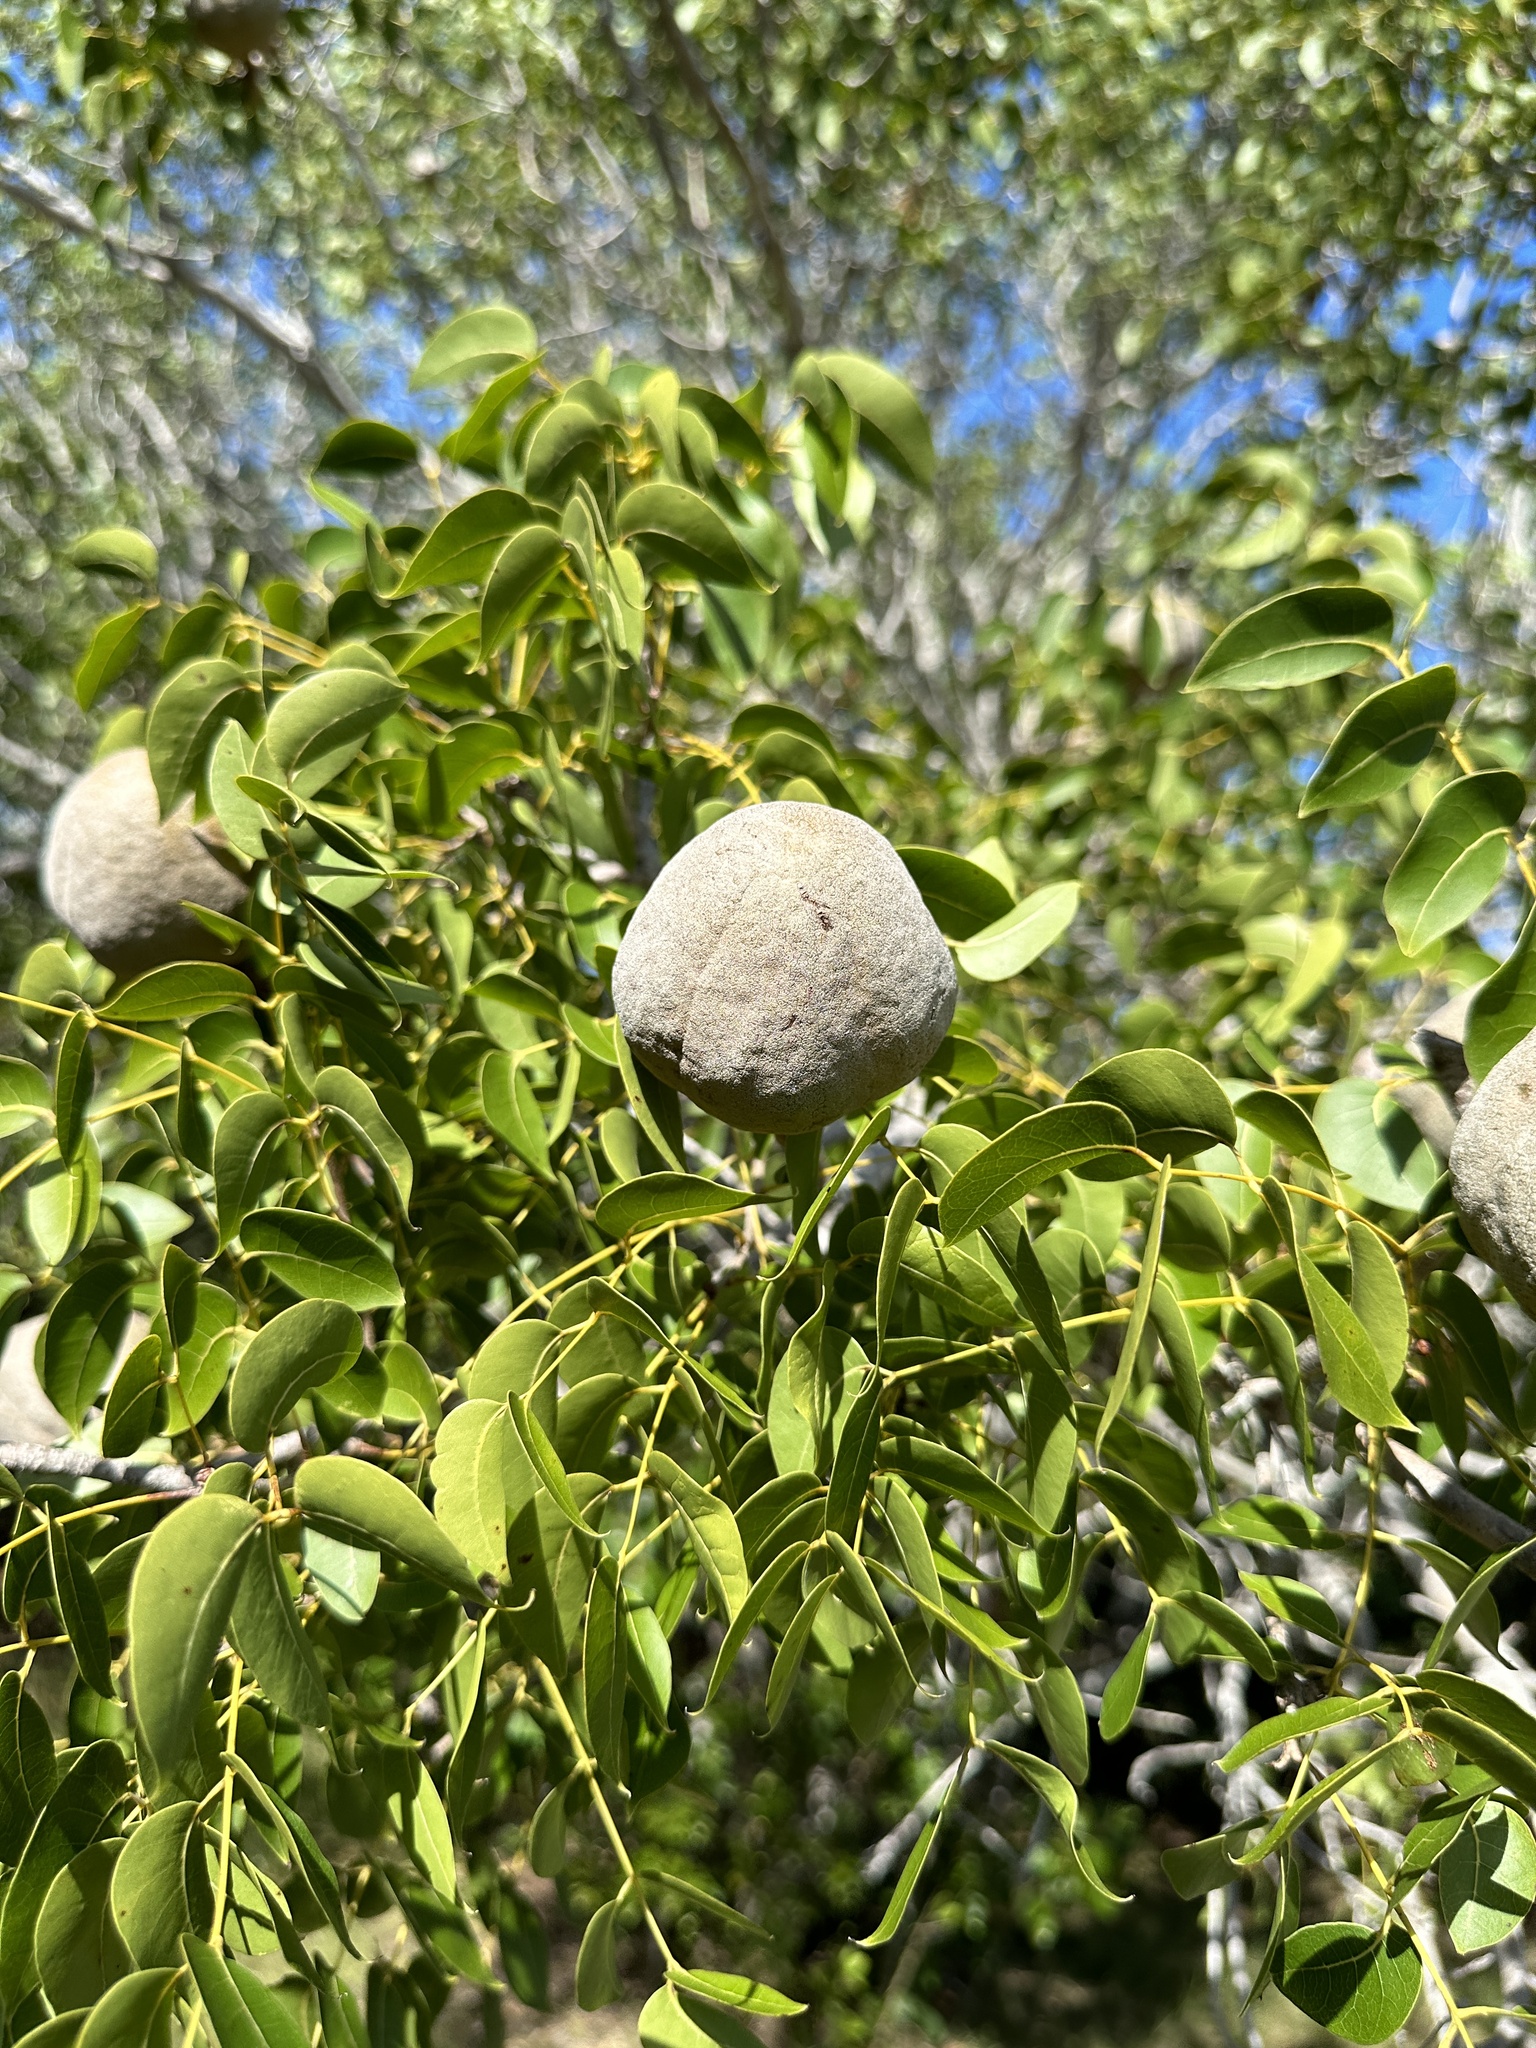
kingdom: Plantae
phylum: Tracheophyta
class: Magnoliopsida
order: Sapindales
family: Meliaceae
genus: Swietenia
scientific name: Swietenia mahagoni
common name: West indian mahogany
